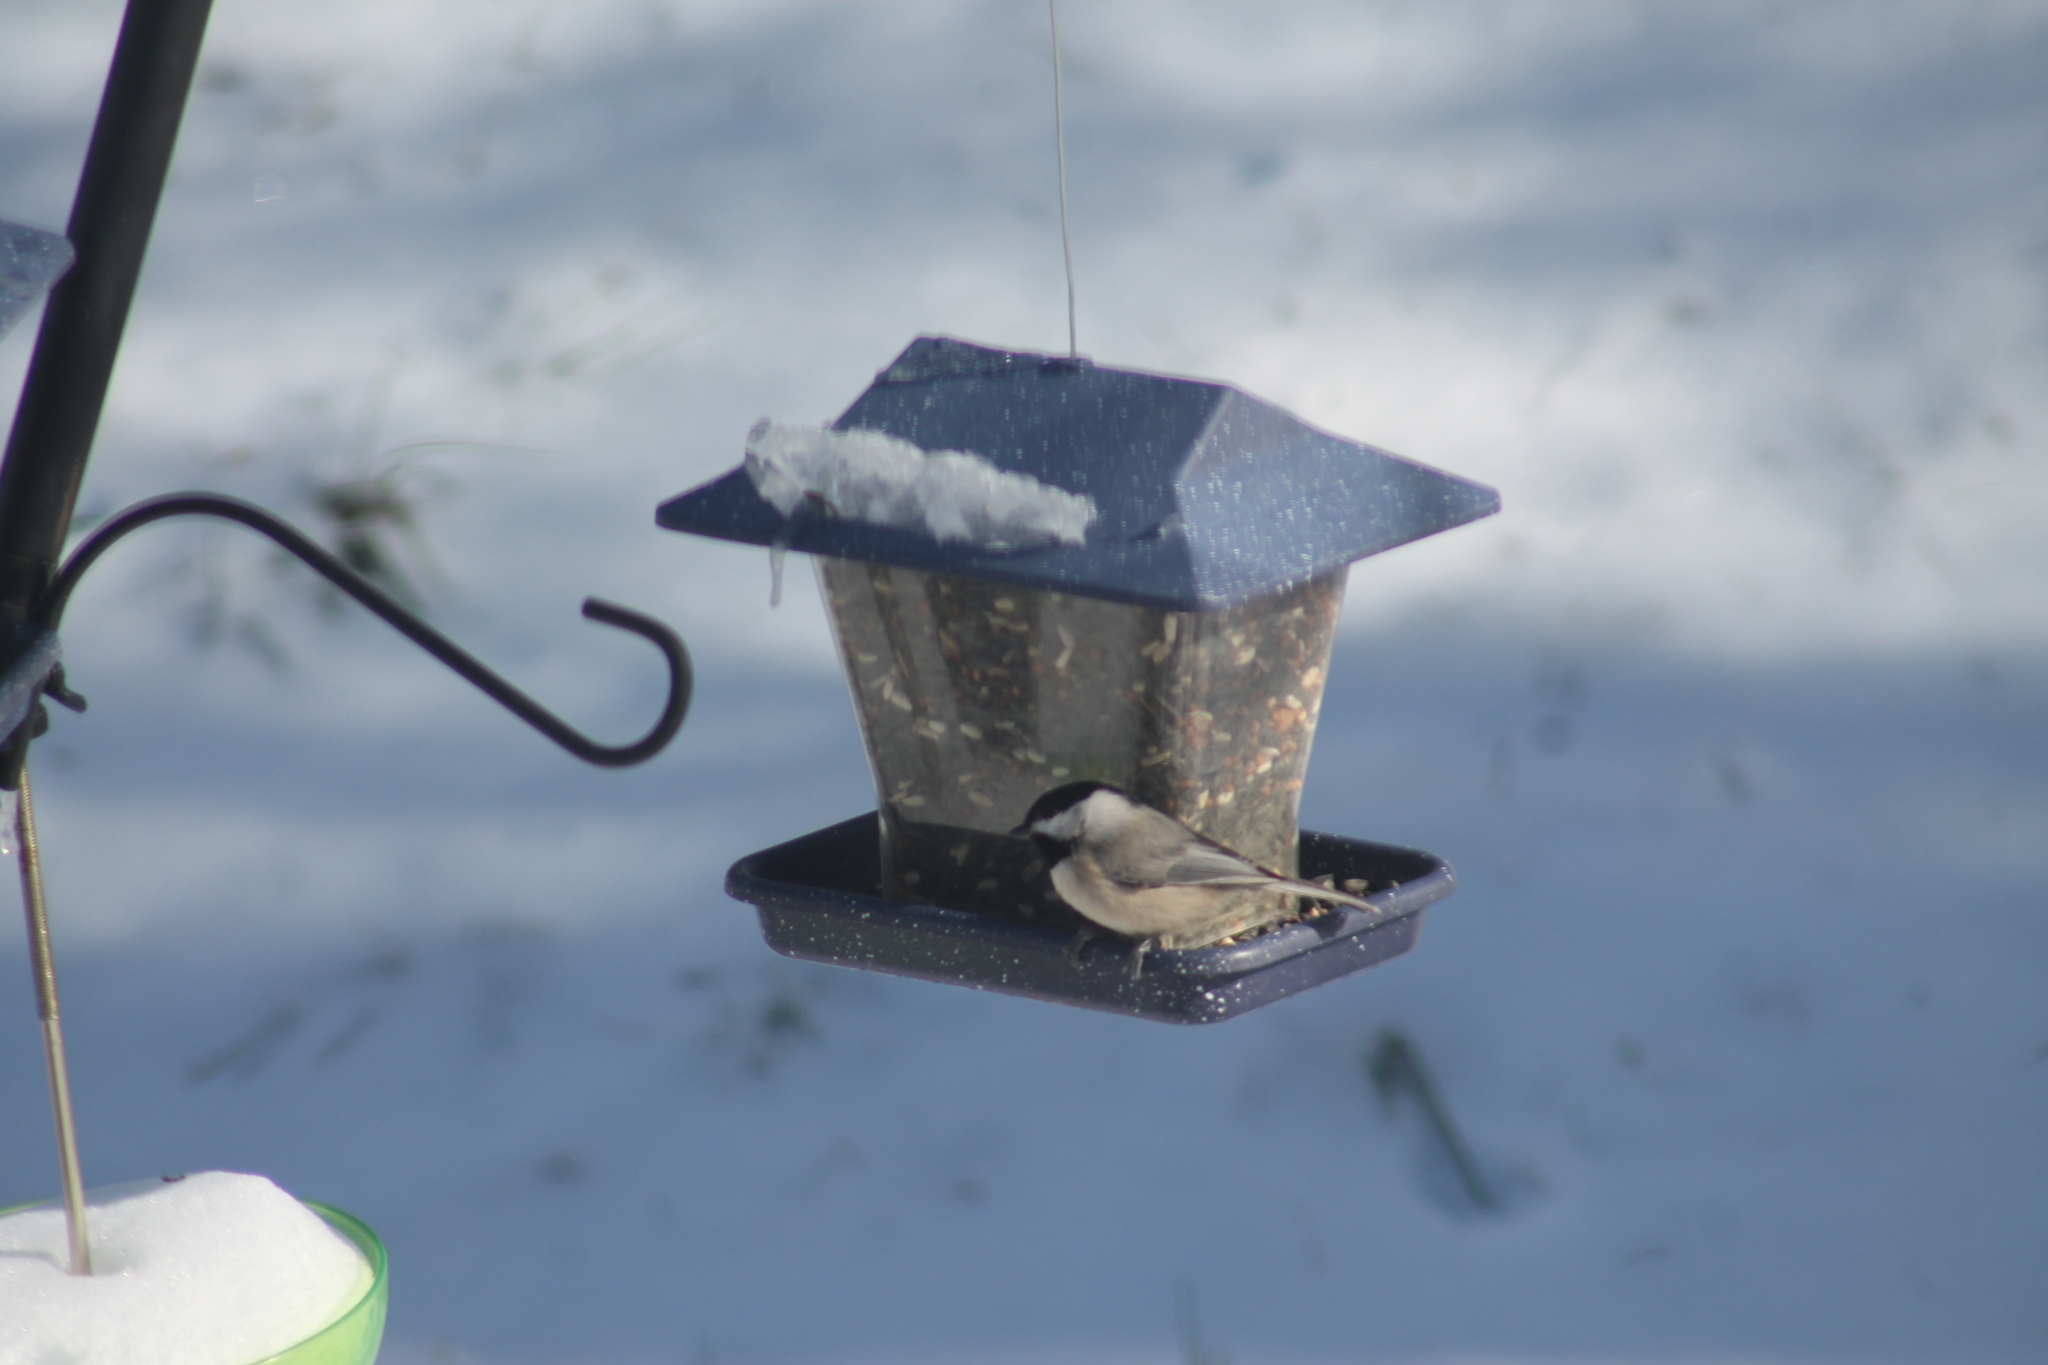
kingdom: Animalia
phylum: Chordata
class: Aves
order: Passeriformes
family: Paridae
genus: Poecile
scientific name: Poecile carolinensis
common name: Carolina chickadee
